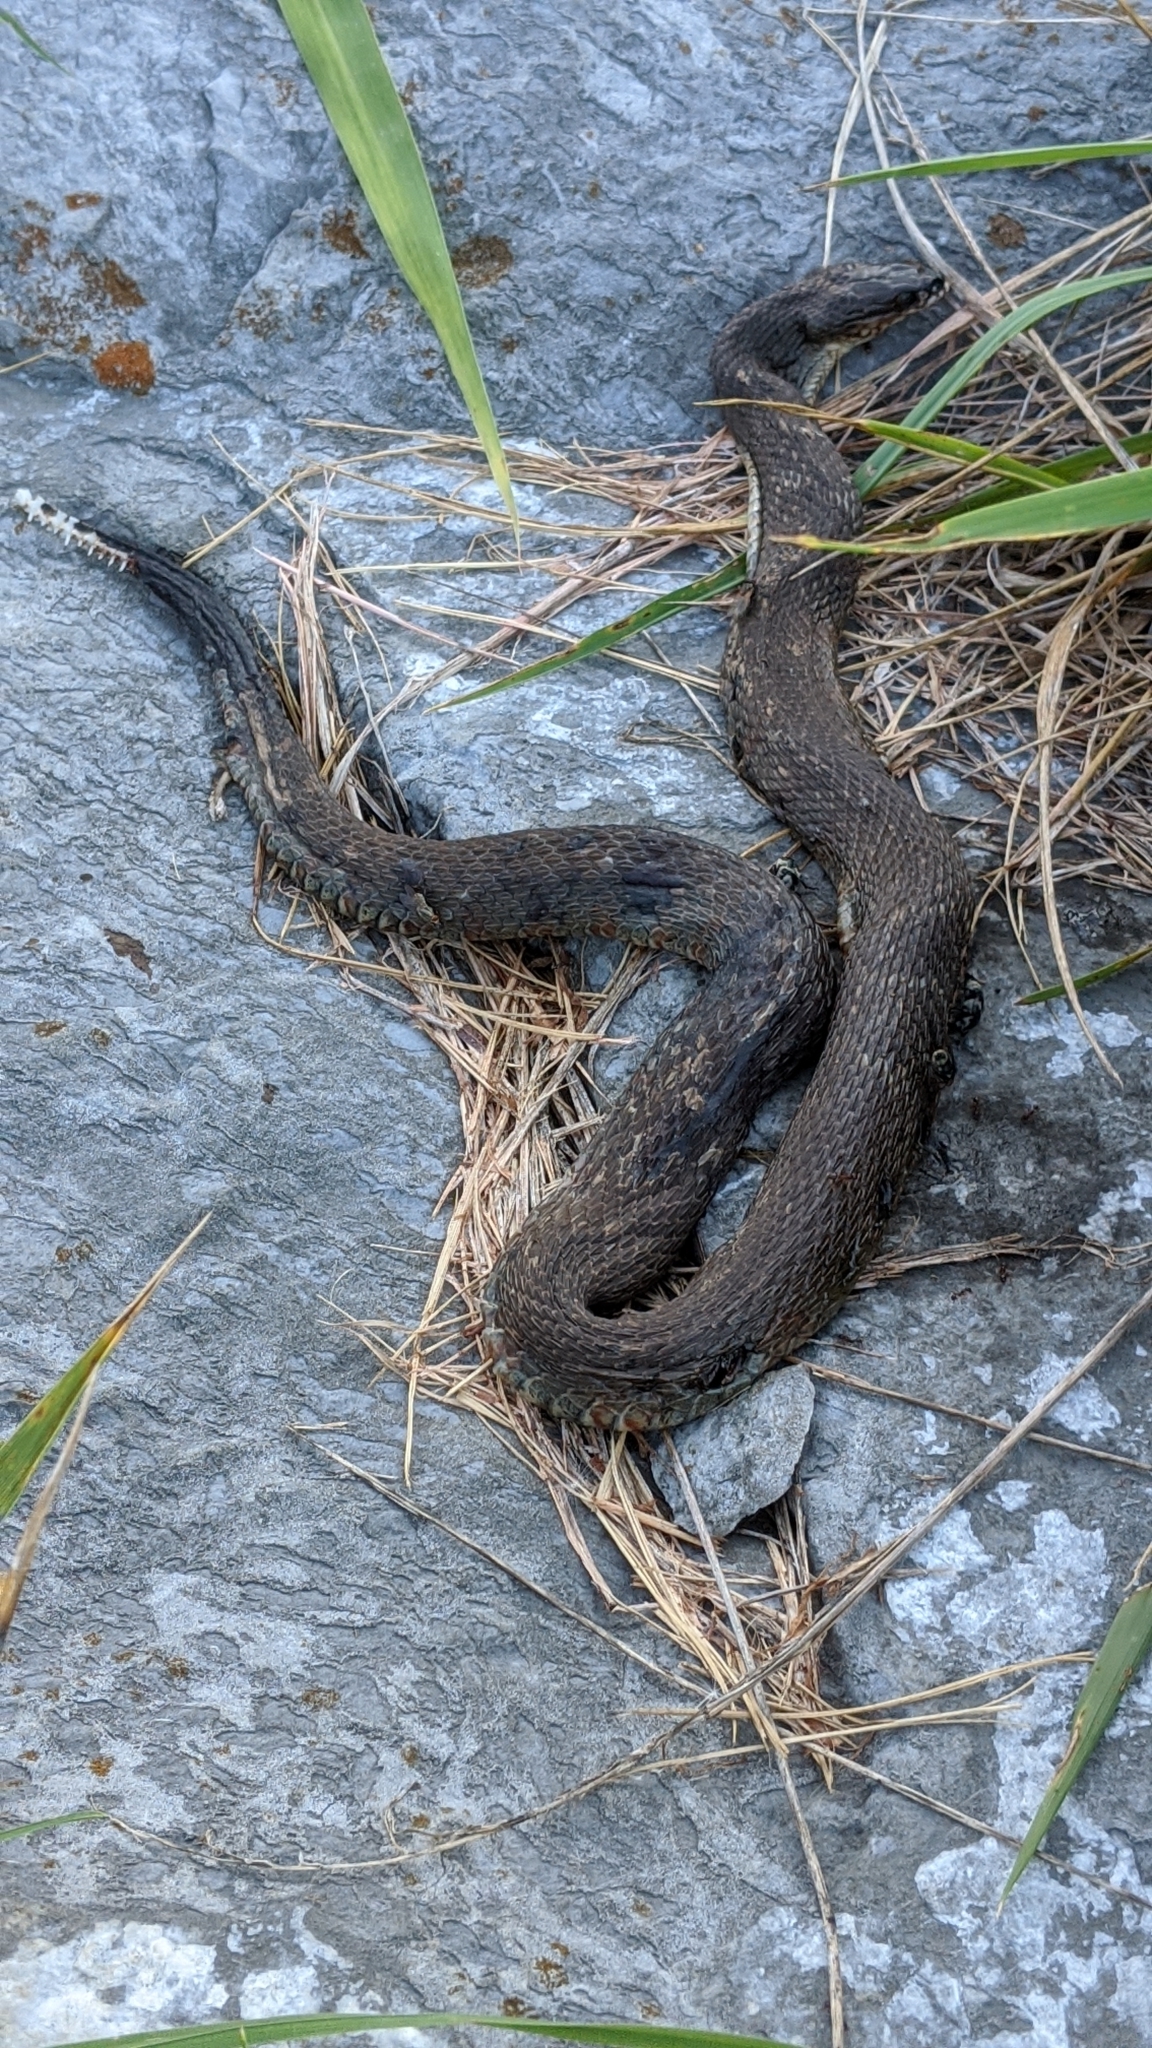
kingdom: Animalia
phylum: Chordata
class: Squamata
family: Colubridae
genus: Nerodia
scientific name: Nerodia sipedon
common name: Northern water snake
